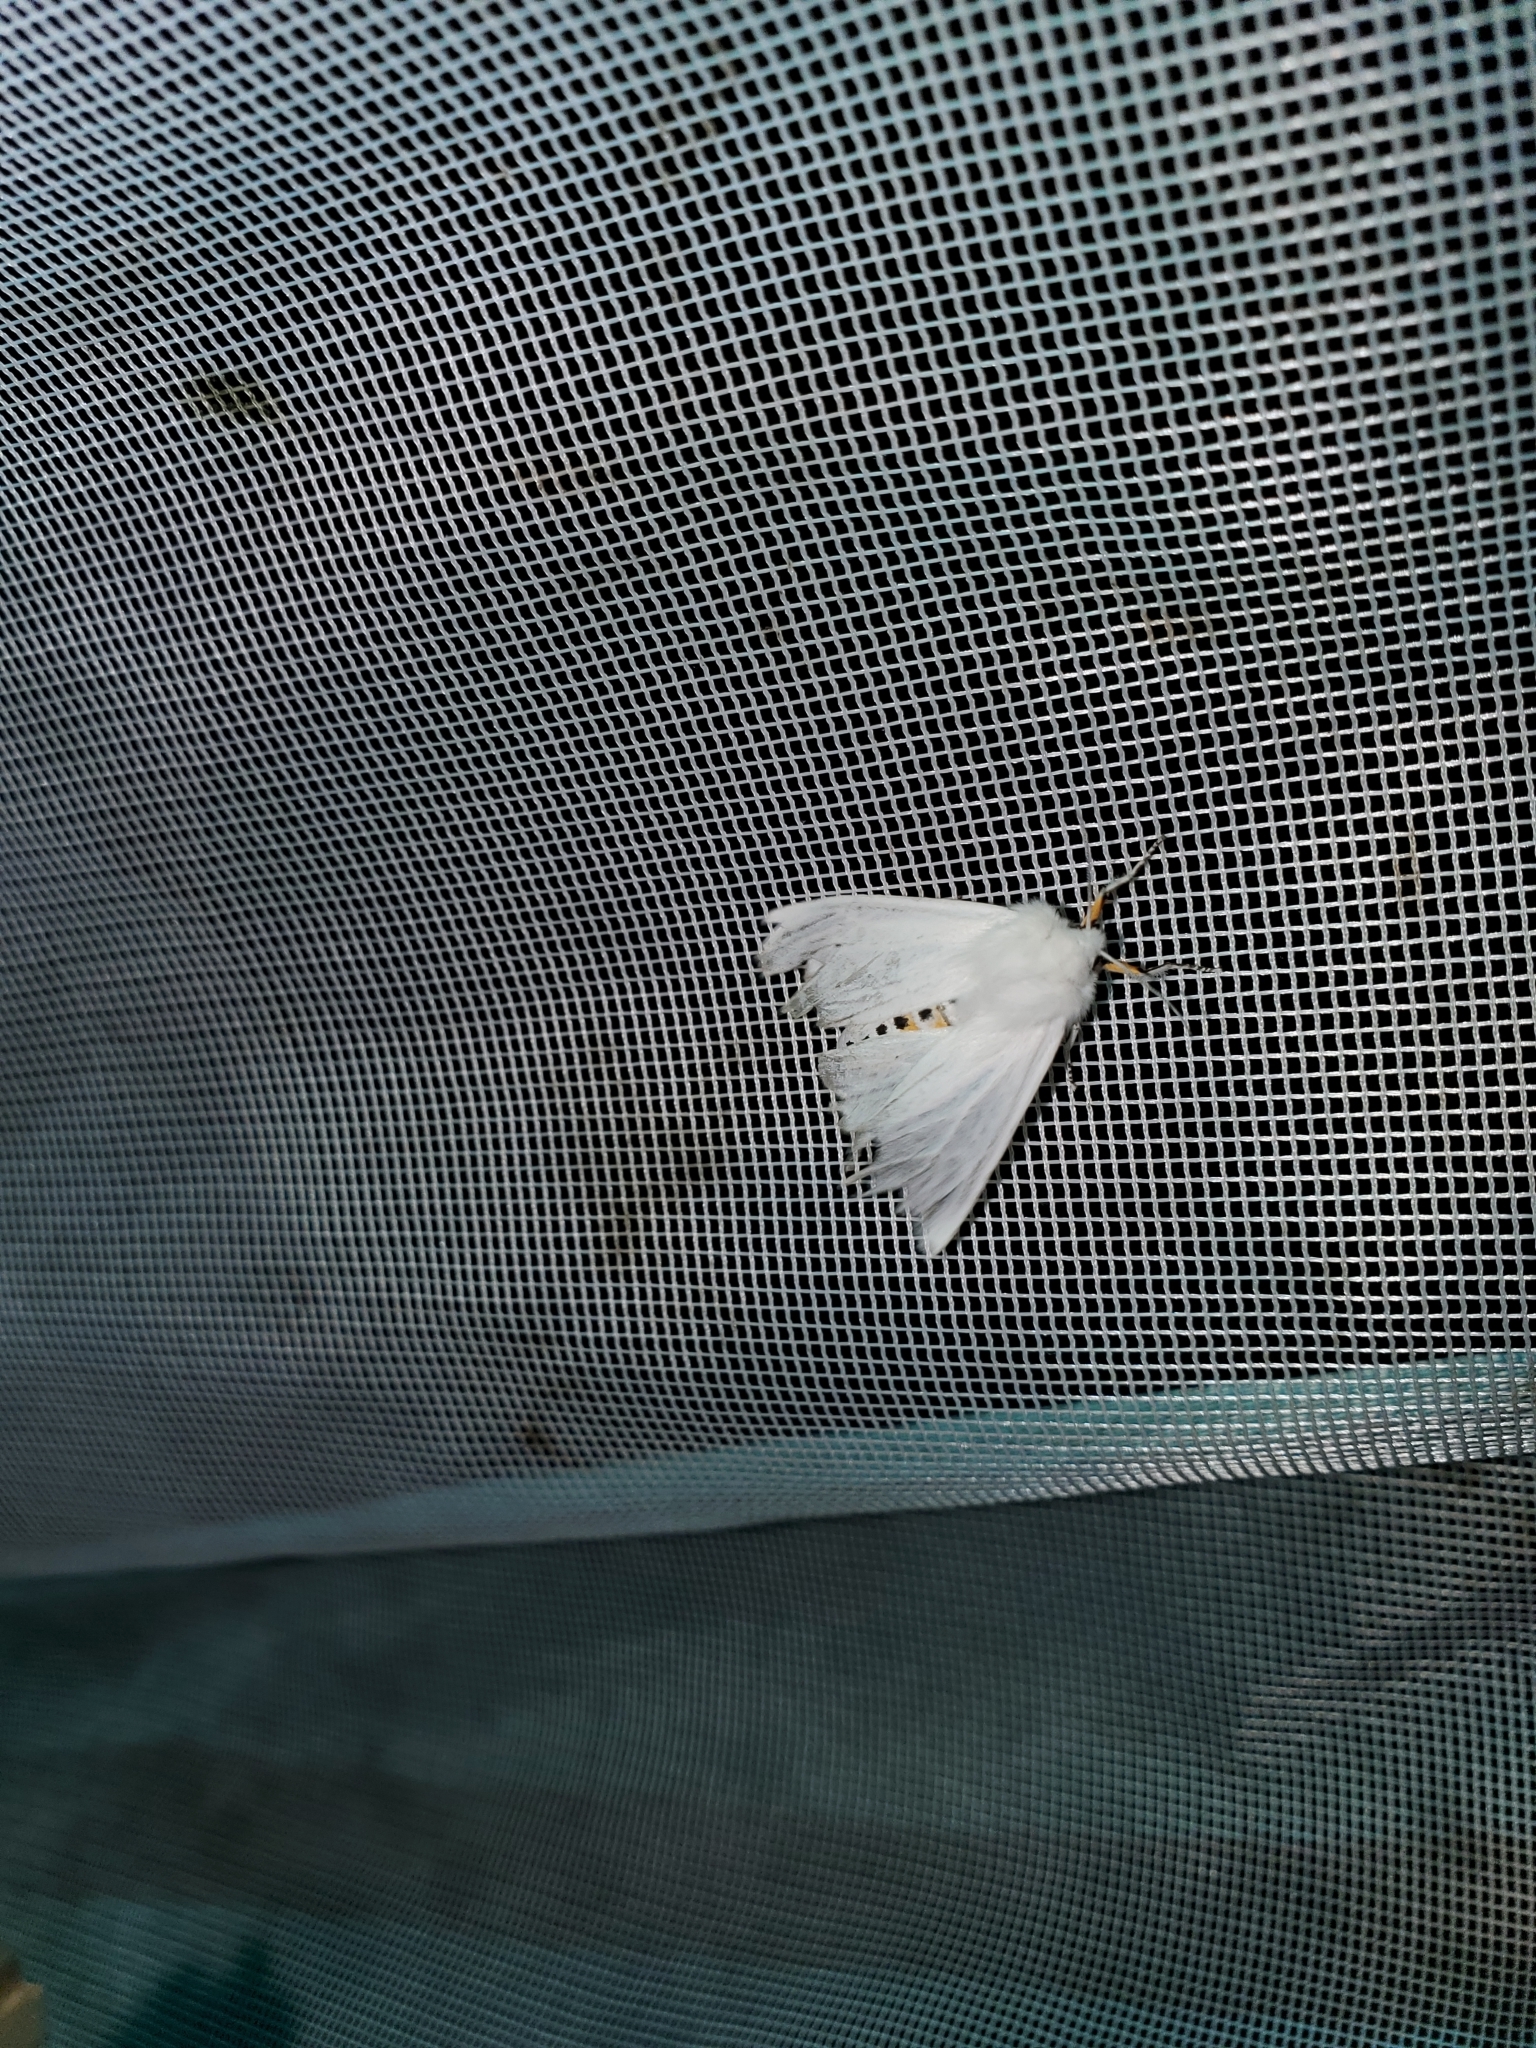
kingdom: Animalia
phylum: Arthropoda
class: Insecta
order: Lepidoptera
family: Erebidae
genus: Spilosoma
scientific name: Spilosoma virginica
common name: Virginia tiger moth
